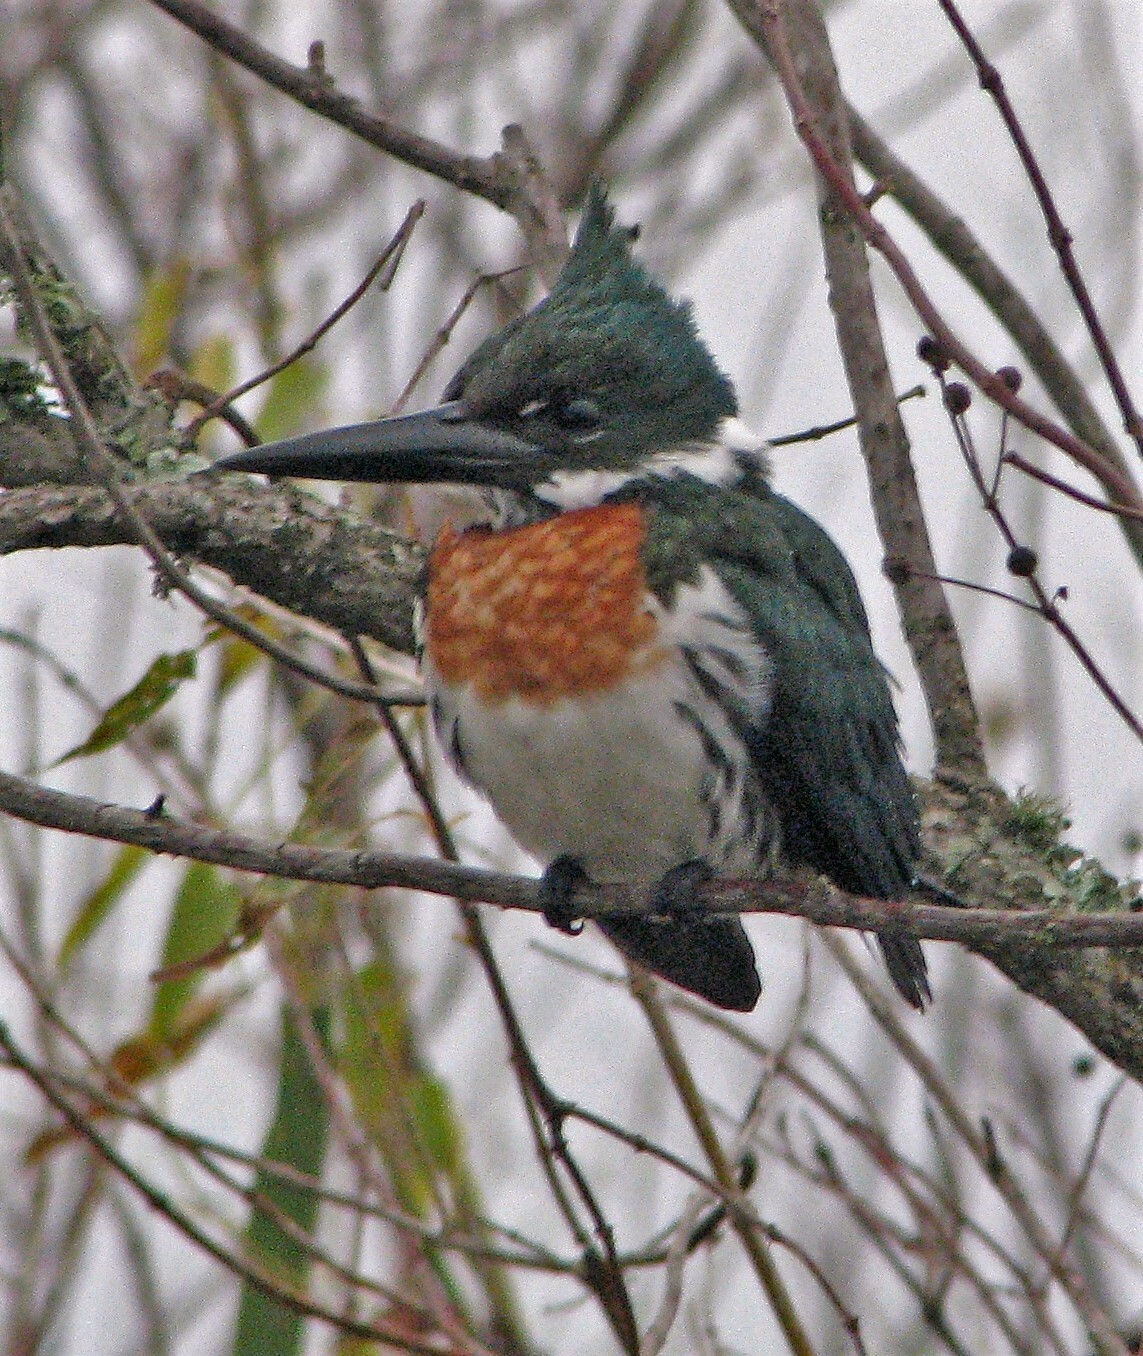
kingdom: Animalia
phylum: Chordata
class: Aves
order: Coraciiformes
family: Alcedinidae
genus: Chloroceryle
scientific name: Chloroceryle amazona
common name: Amazon kingfisher
